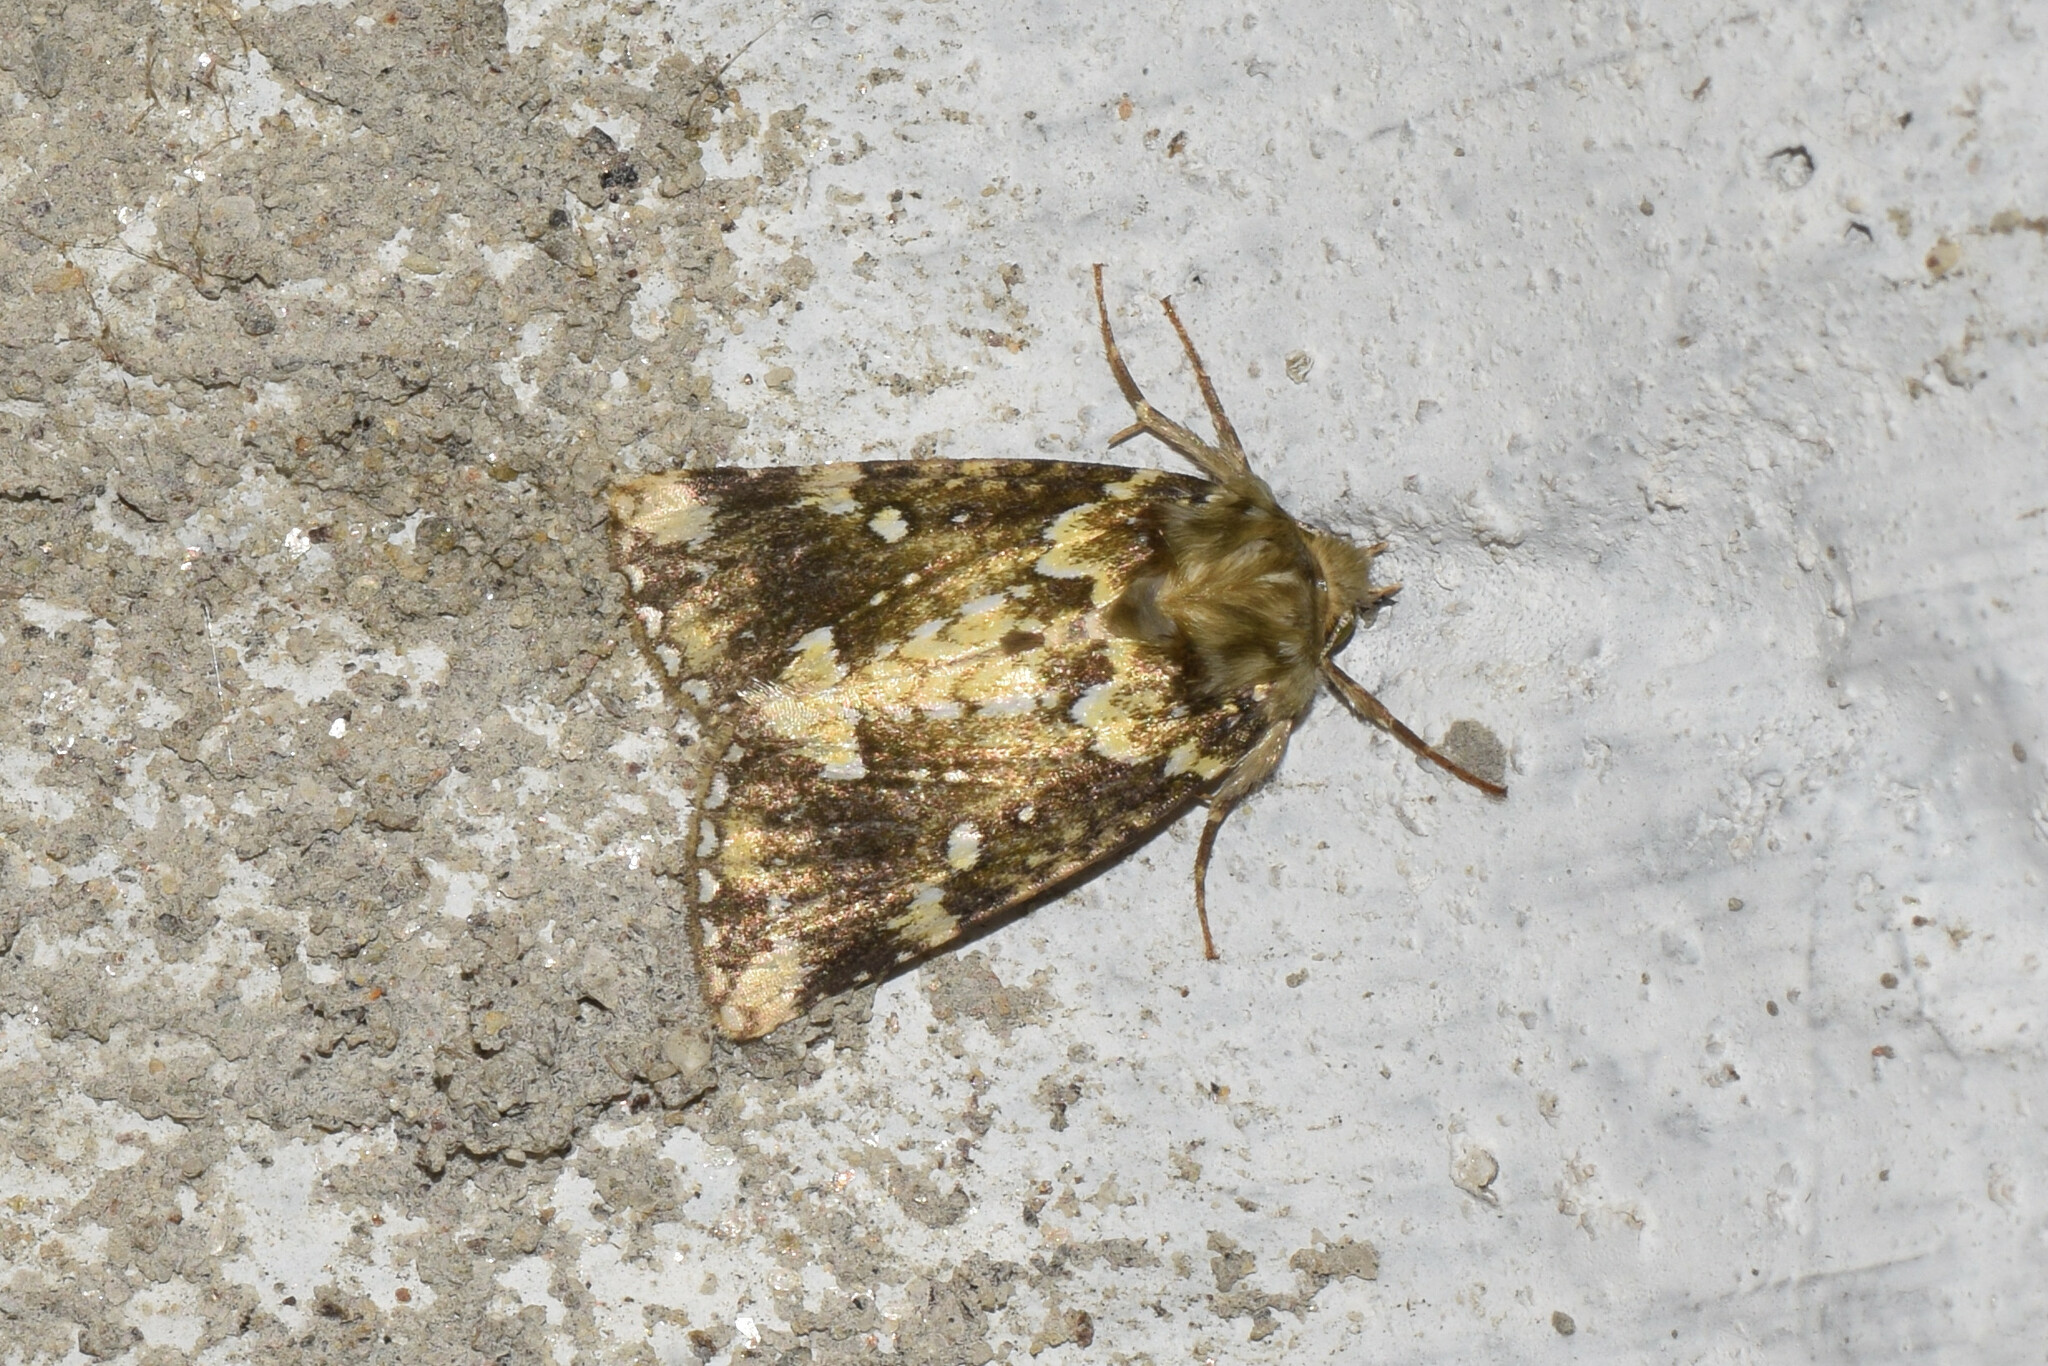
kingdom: Animalia
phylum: Arthropoda
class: Insecta
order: Lepidoptera
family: Drepanidae
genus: Gaurena
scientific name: Gaurena florens
